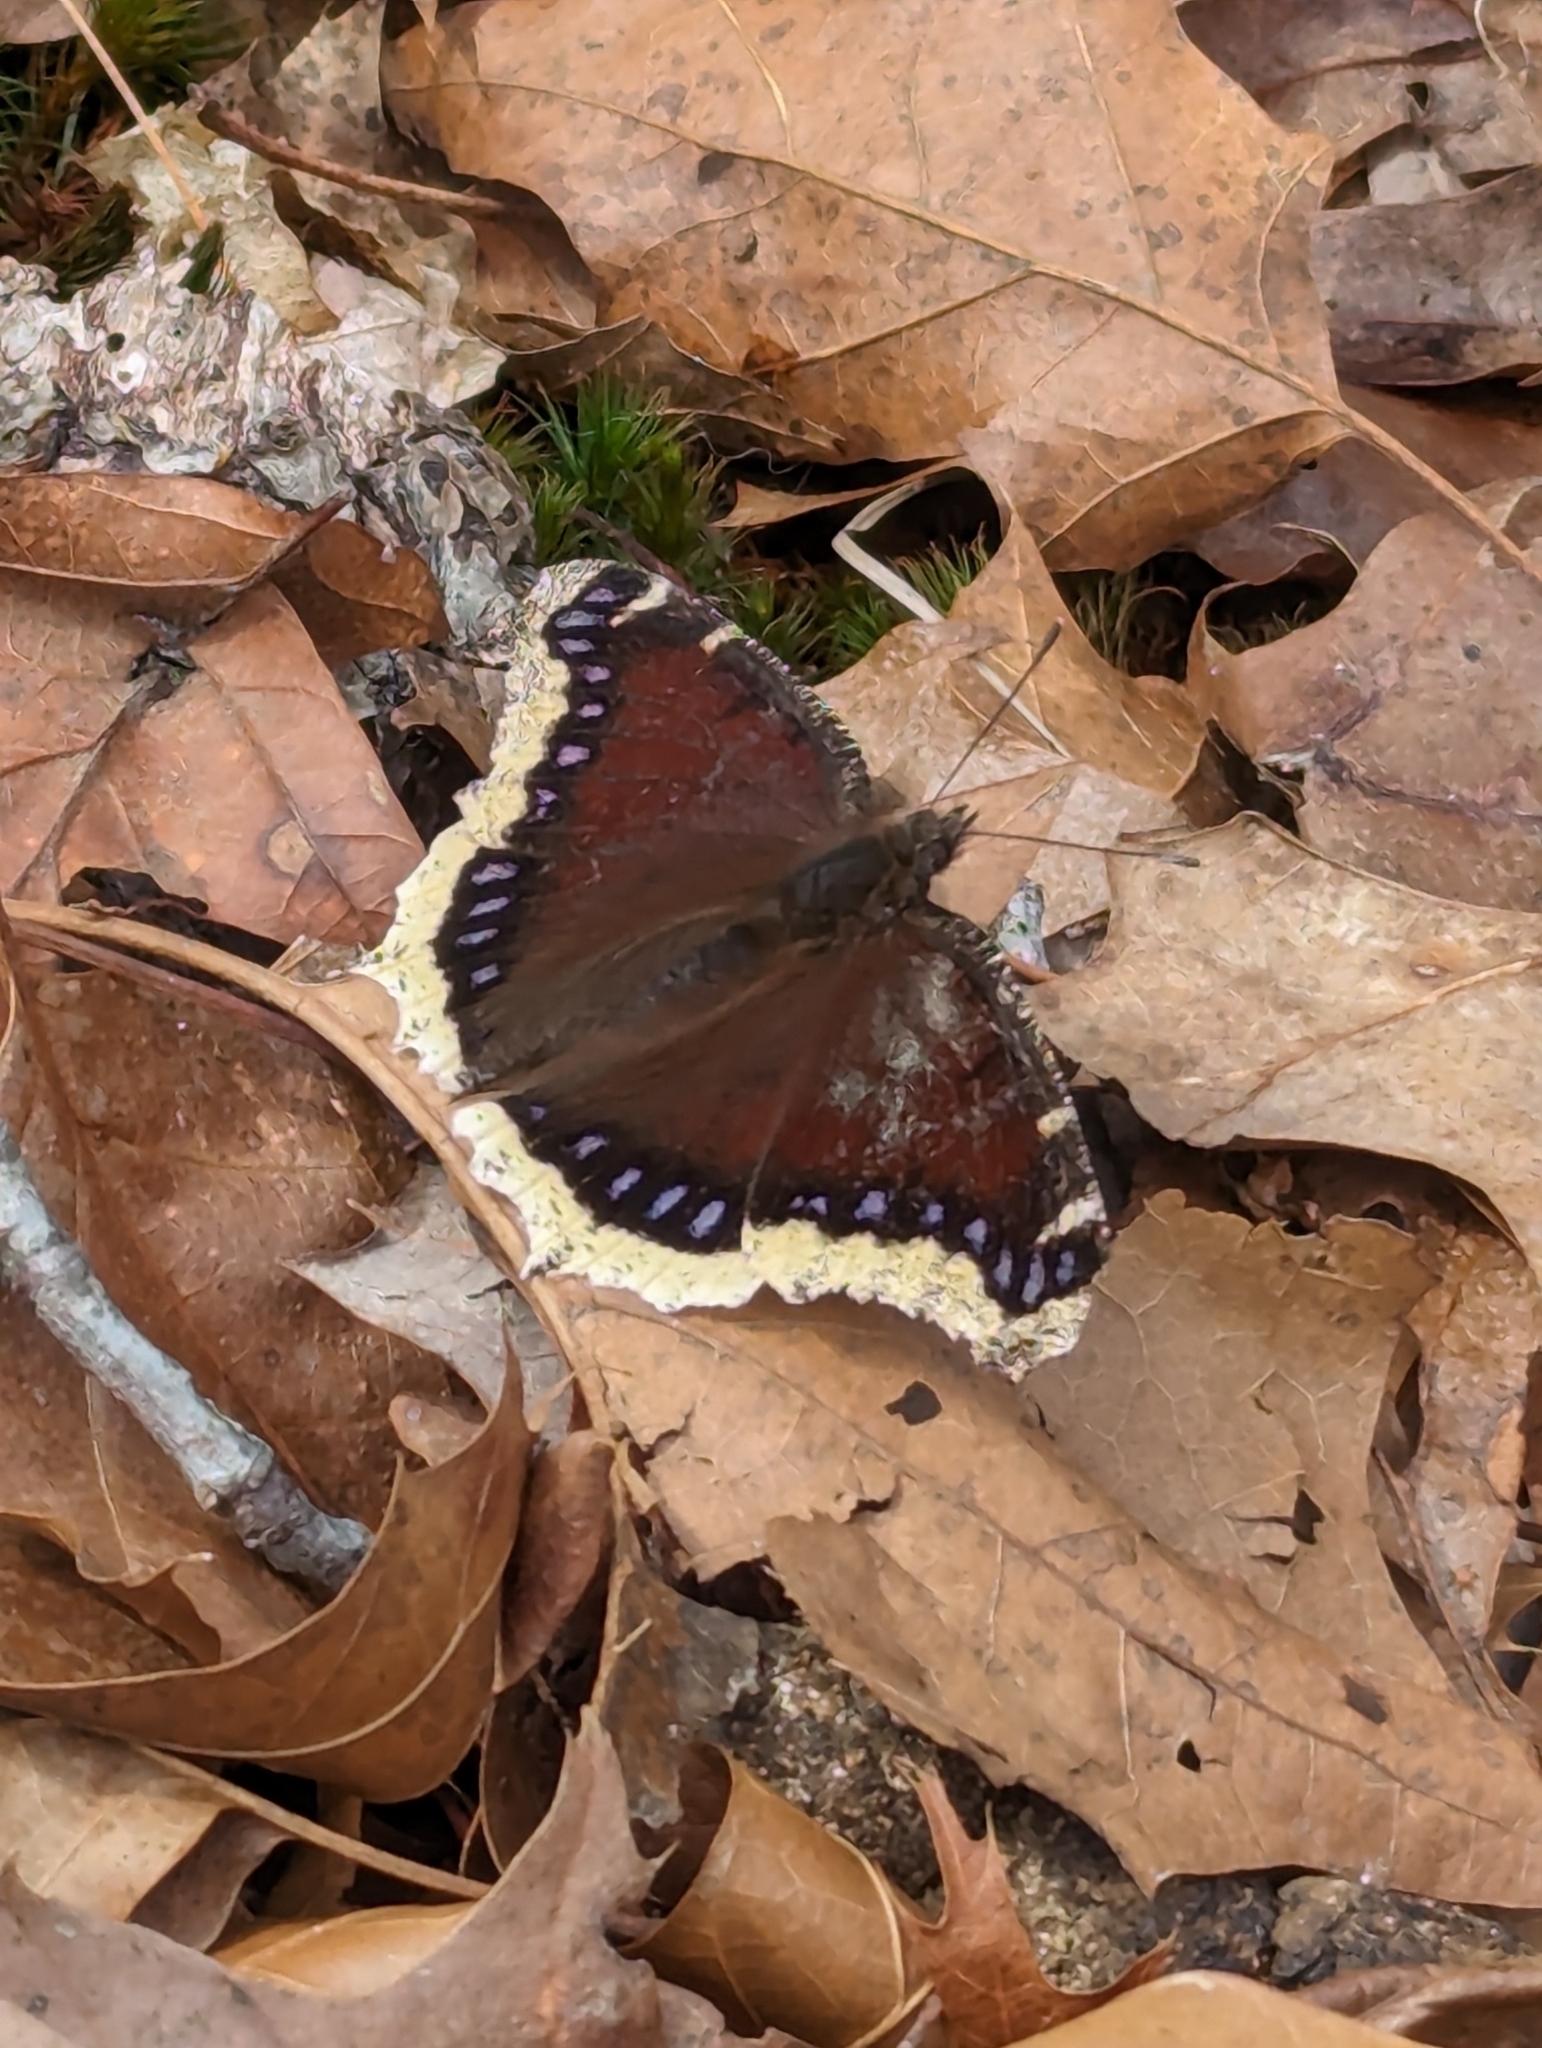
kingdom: Animalia
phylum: Arthropoda
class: Insecta
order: Lepidoptera
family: Nymphalidae
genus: Nymphalis
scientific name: Nymphalis antiopa
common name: Camberwell beauty
